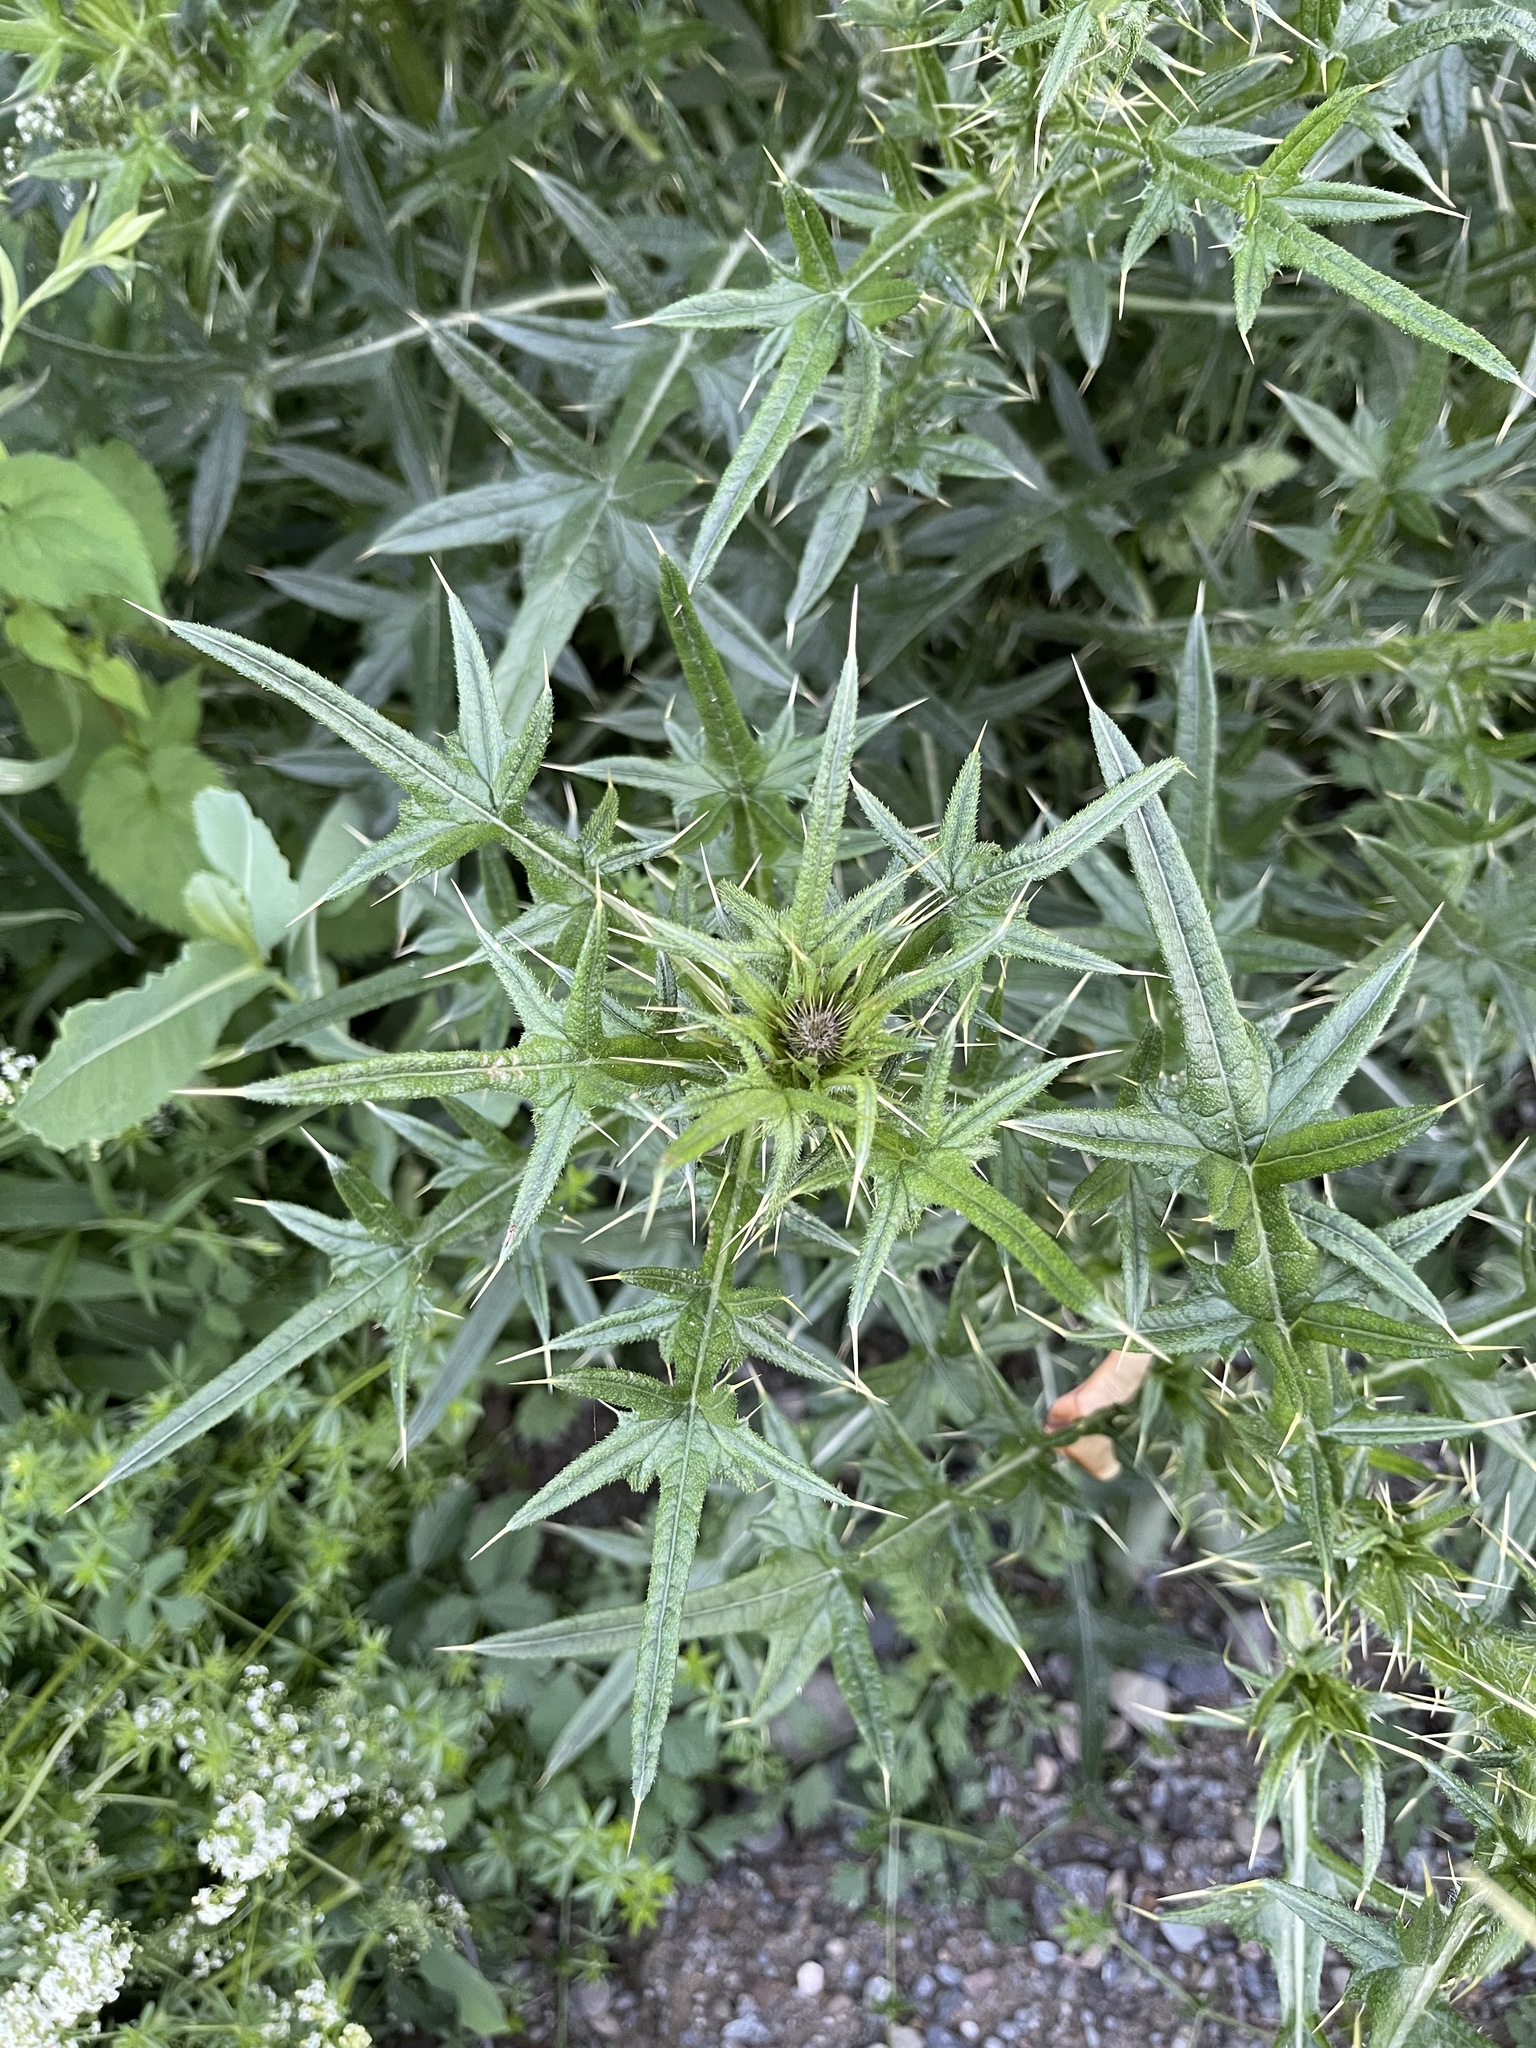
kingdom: Plantae
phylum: Tracheophyta
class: Magnoliopsida
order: Asterales
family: Asteraceae
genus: Cirsium
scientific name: Cirsium vulgare
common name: Bull thistle
